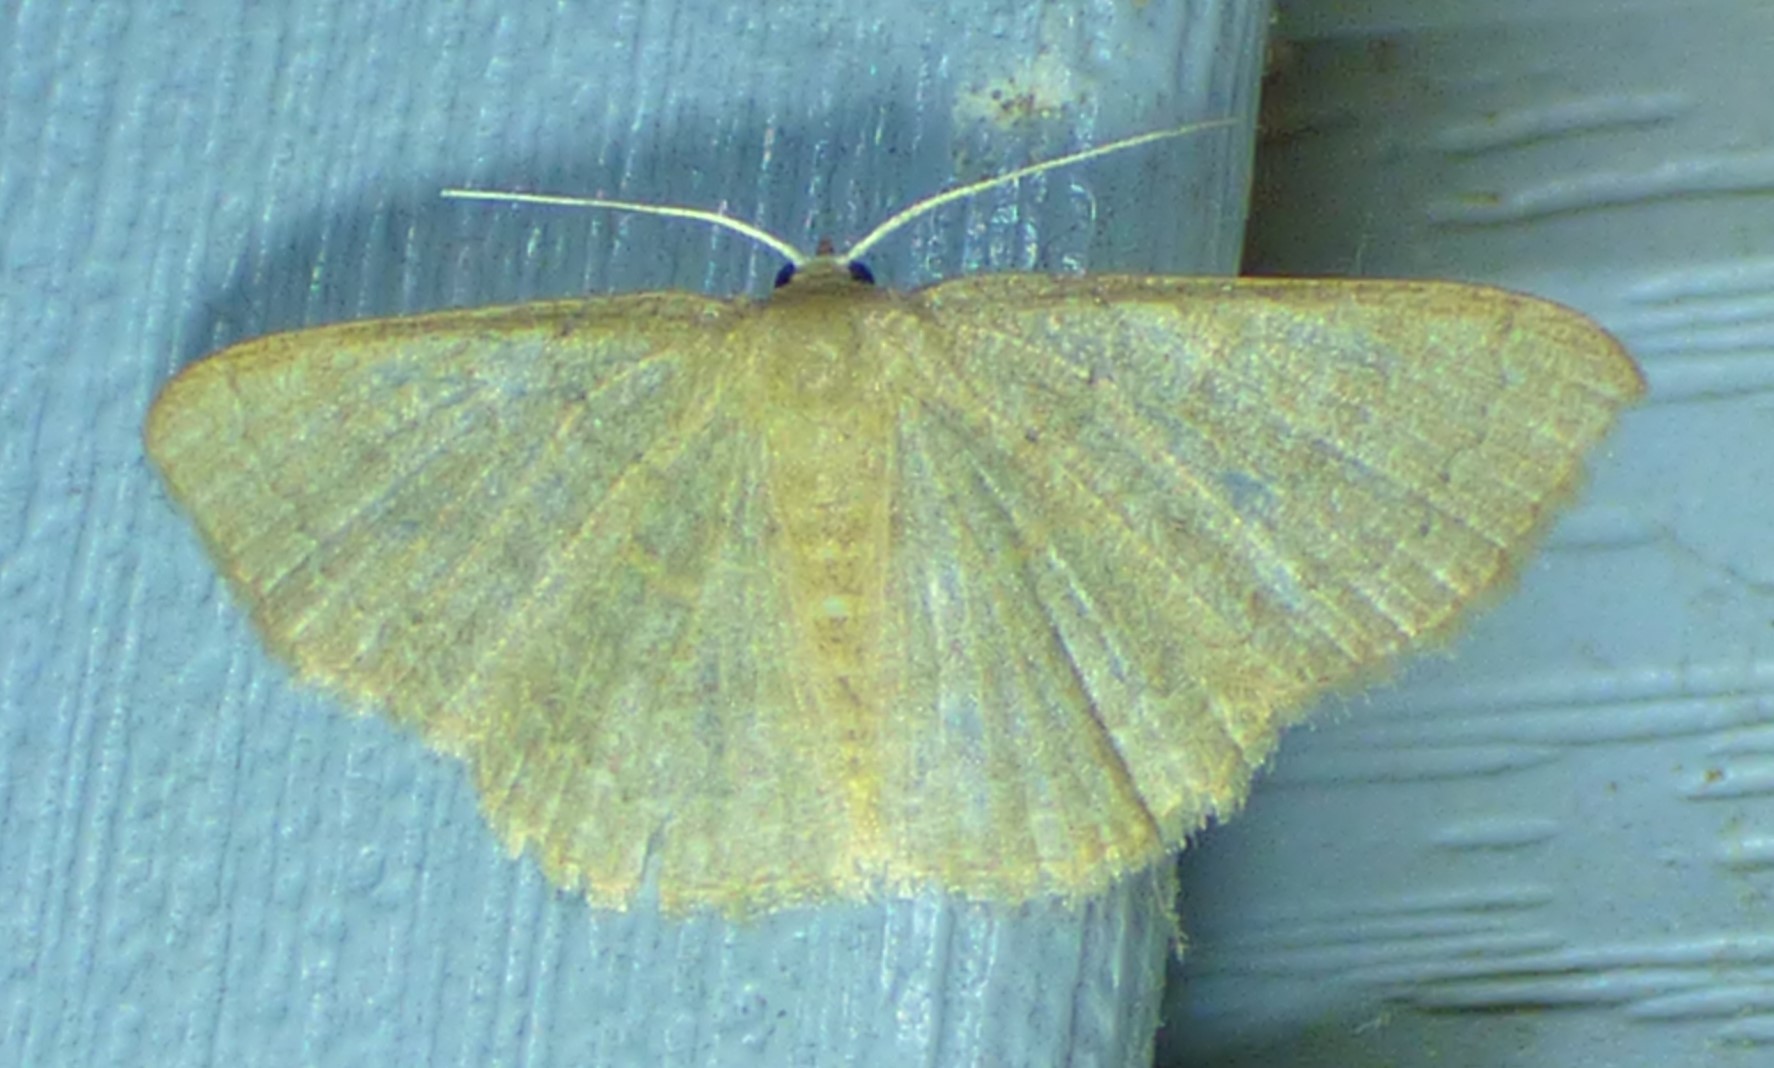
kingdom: Animalia
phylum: Arthropoda
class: Insecta
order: Lepidoptera
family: Geometridae
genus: Pleuroprucha
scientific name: Pleuroprucha insulsaria
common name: Common tan wave
